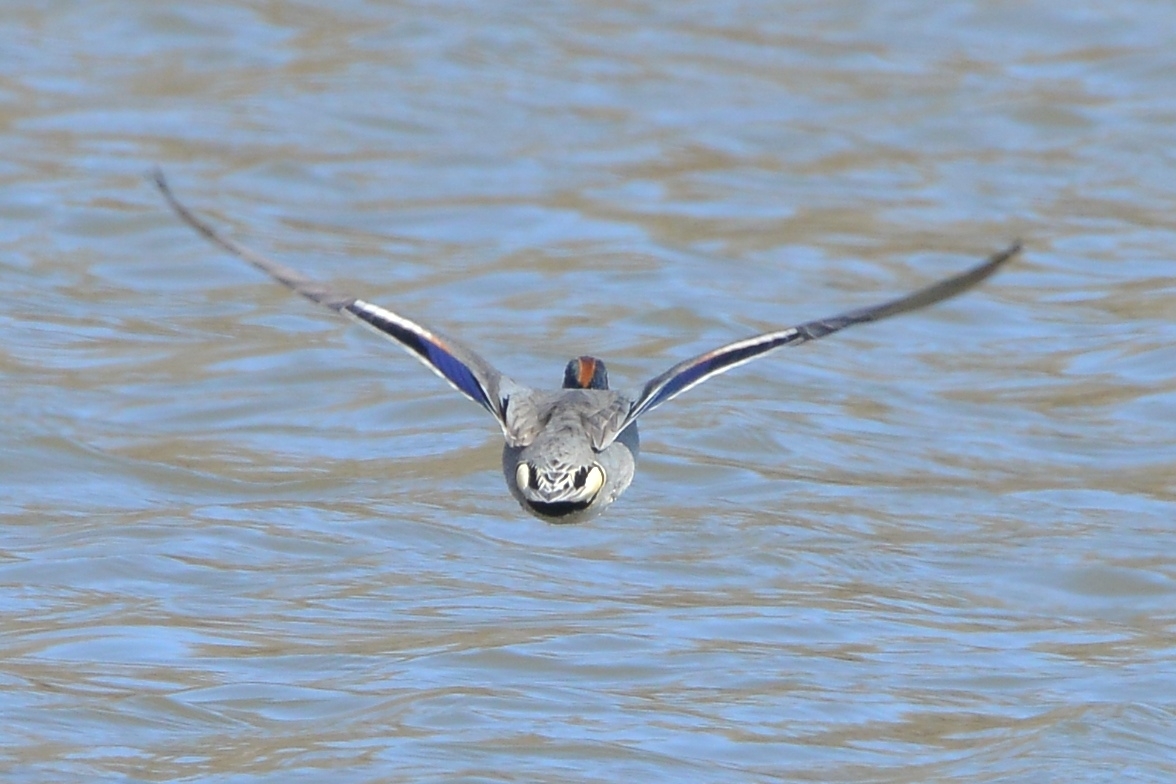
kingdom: Animalia
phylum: Chordata
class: Aves
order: Anseriformes
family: Anatidae
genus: Anas
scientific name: Anas crecca
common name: Eurasian teal
